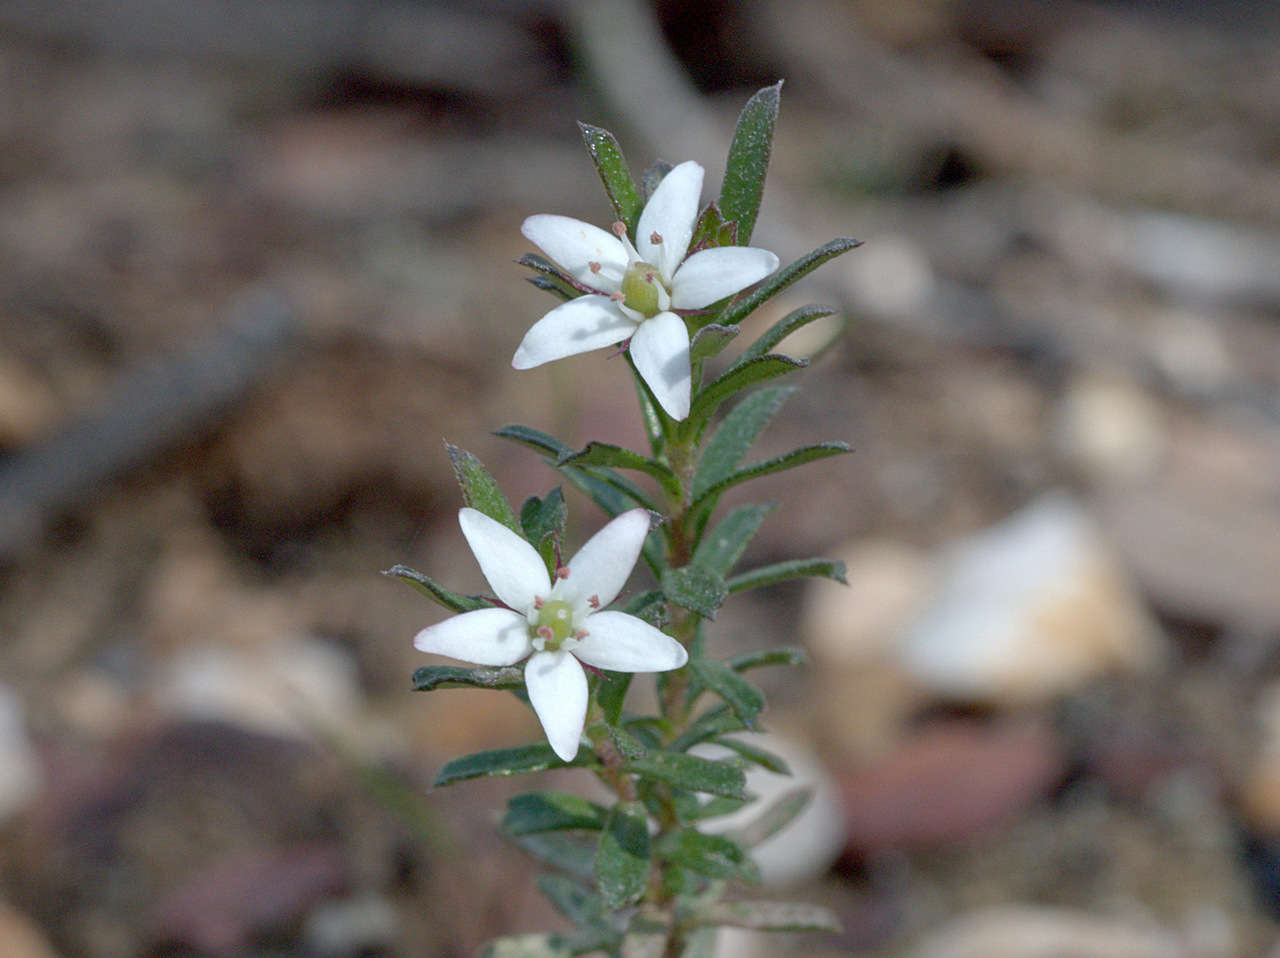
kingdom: Plantae
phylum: Tracheophyta
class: Magnoliopsida
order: Apiales
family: Pittosporaceae
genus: Rhytidosporum
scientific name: Rhytidosporum procumbens
